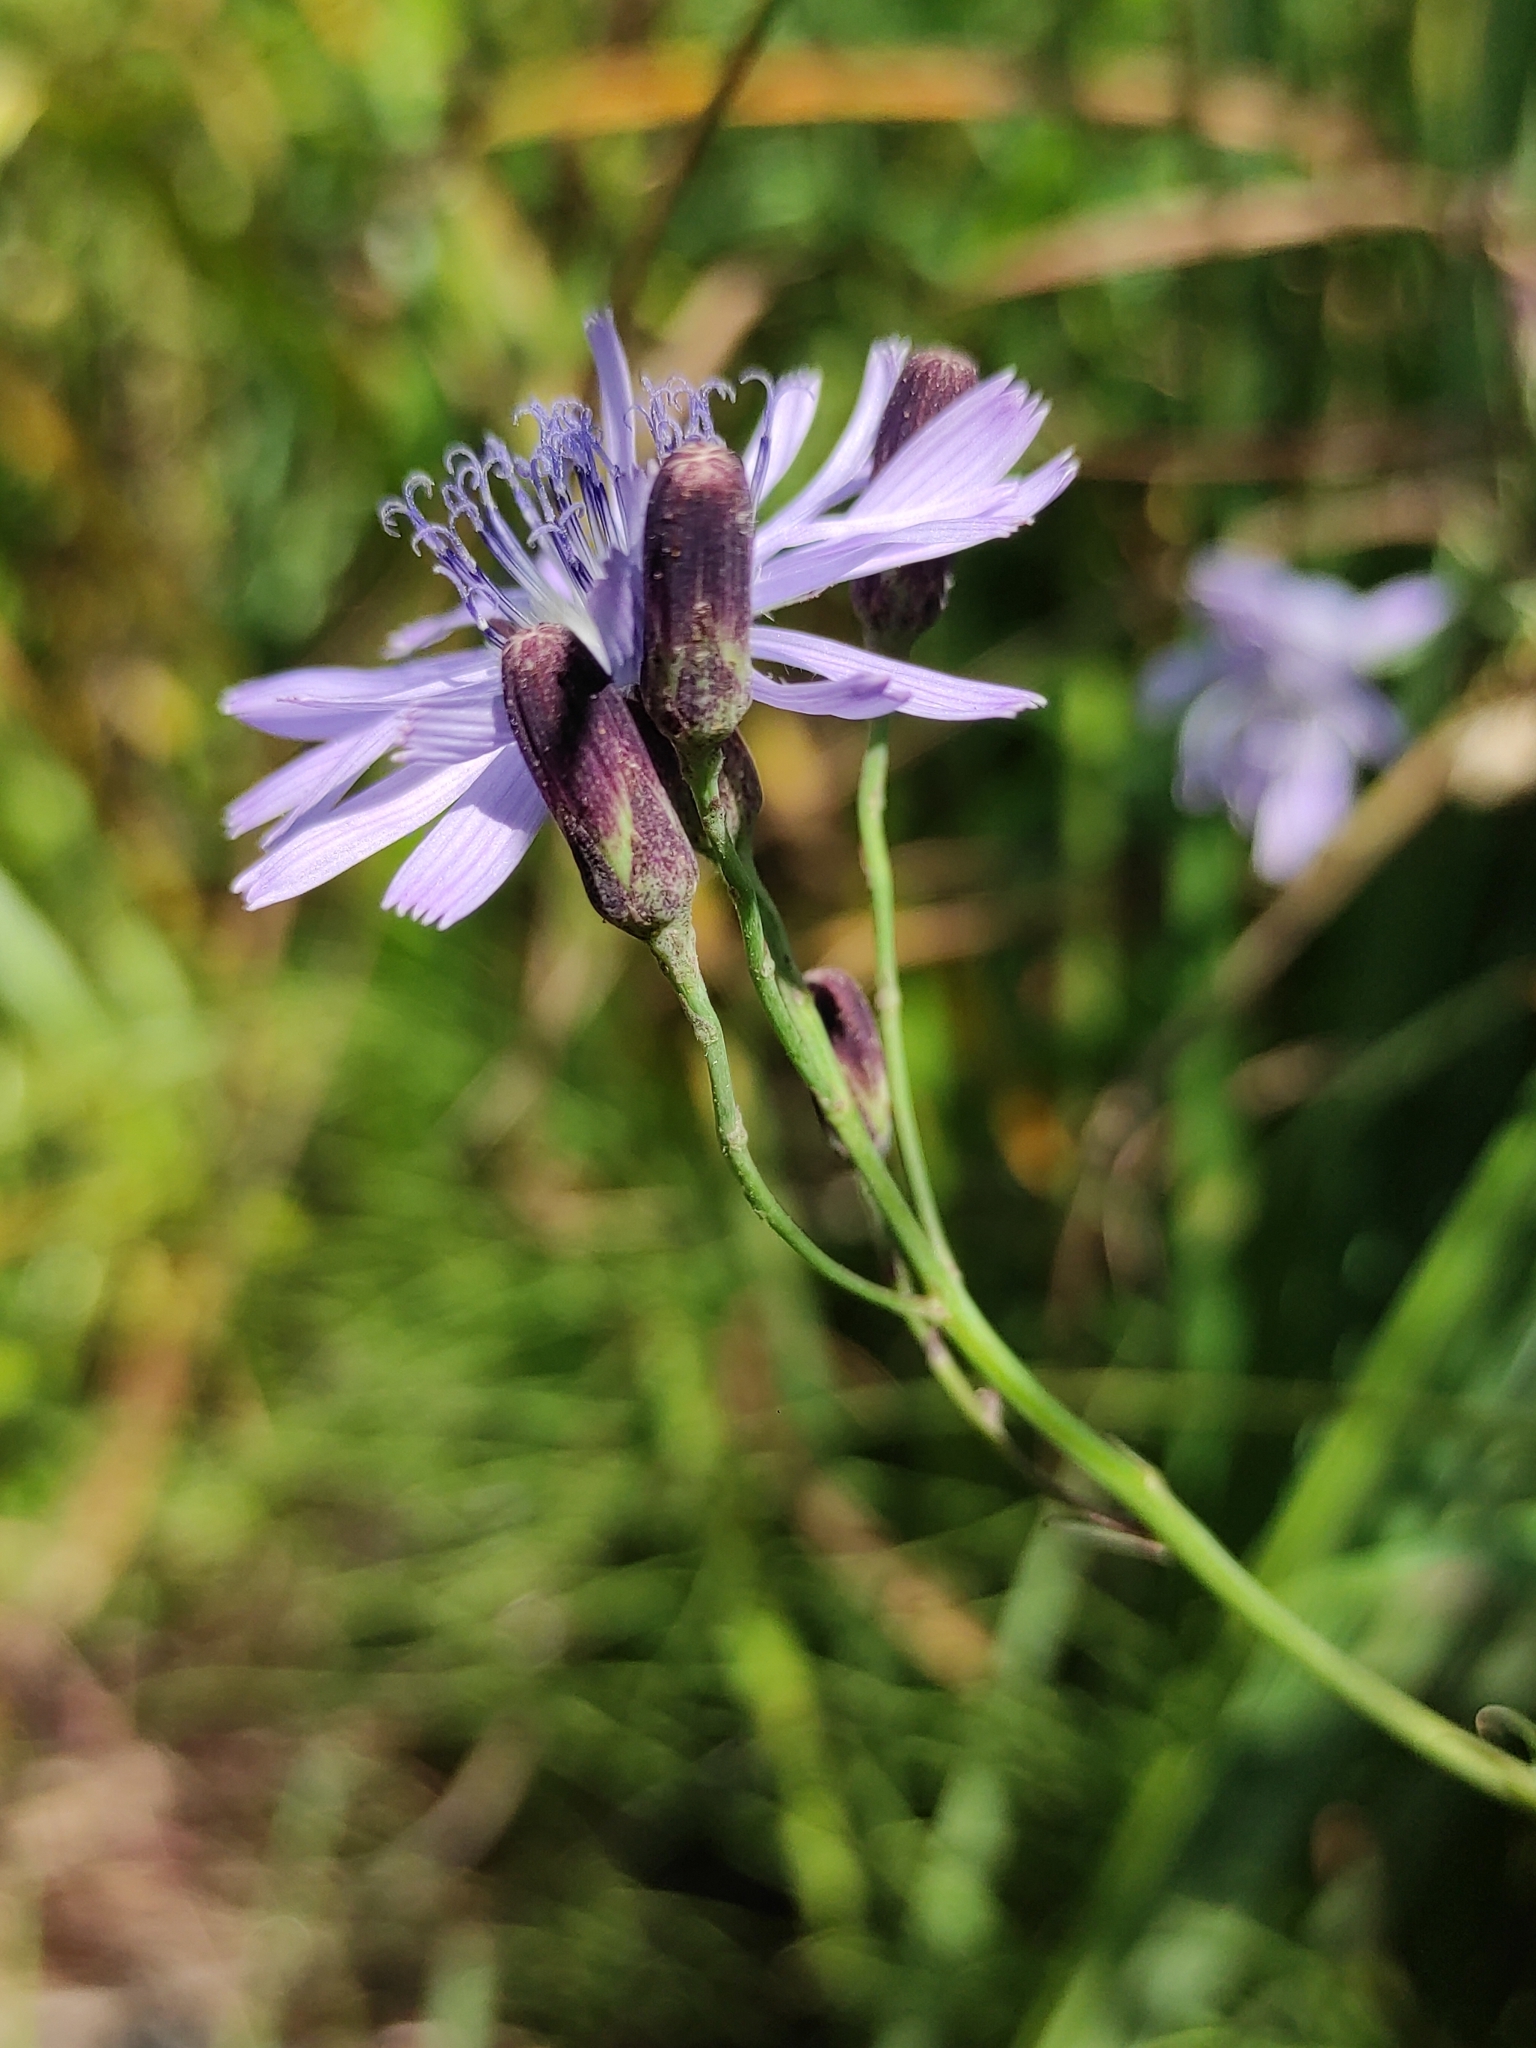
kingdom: Plantae
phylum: Tracheophyta
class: Magnoliopsida
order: Asterales
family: Asteraceae
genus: Lactuca
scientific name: Lactuca sibirica
